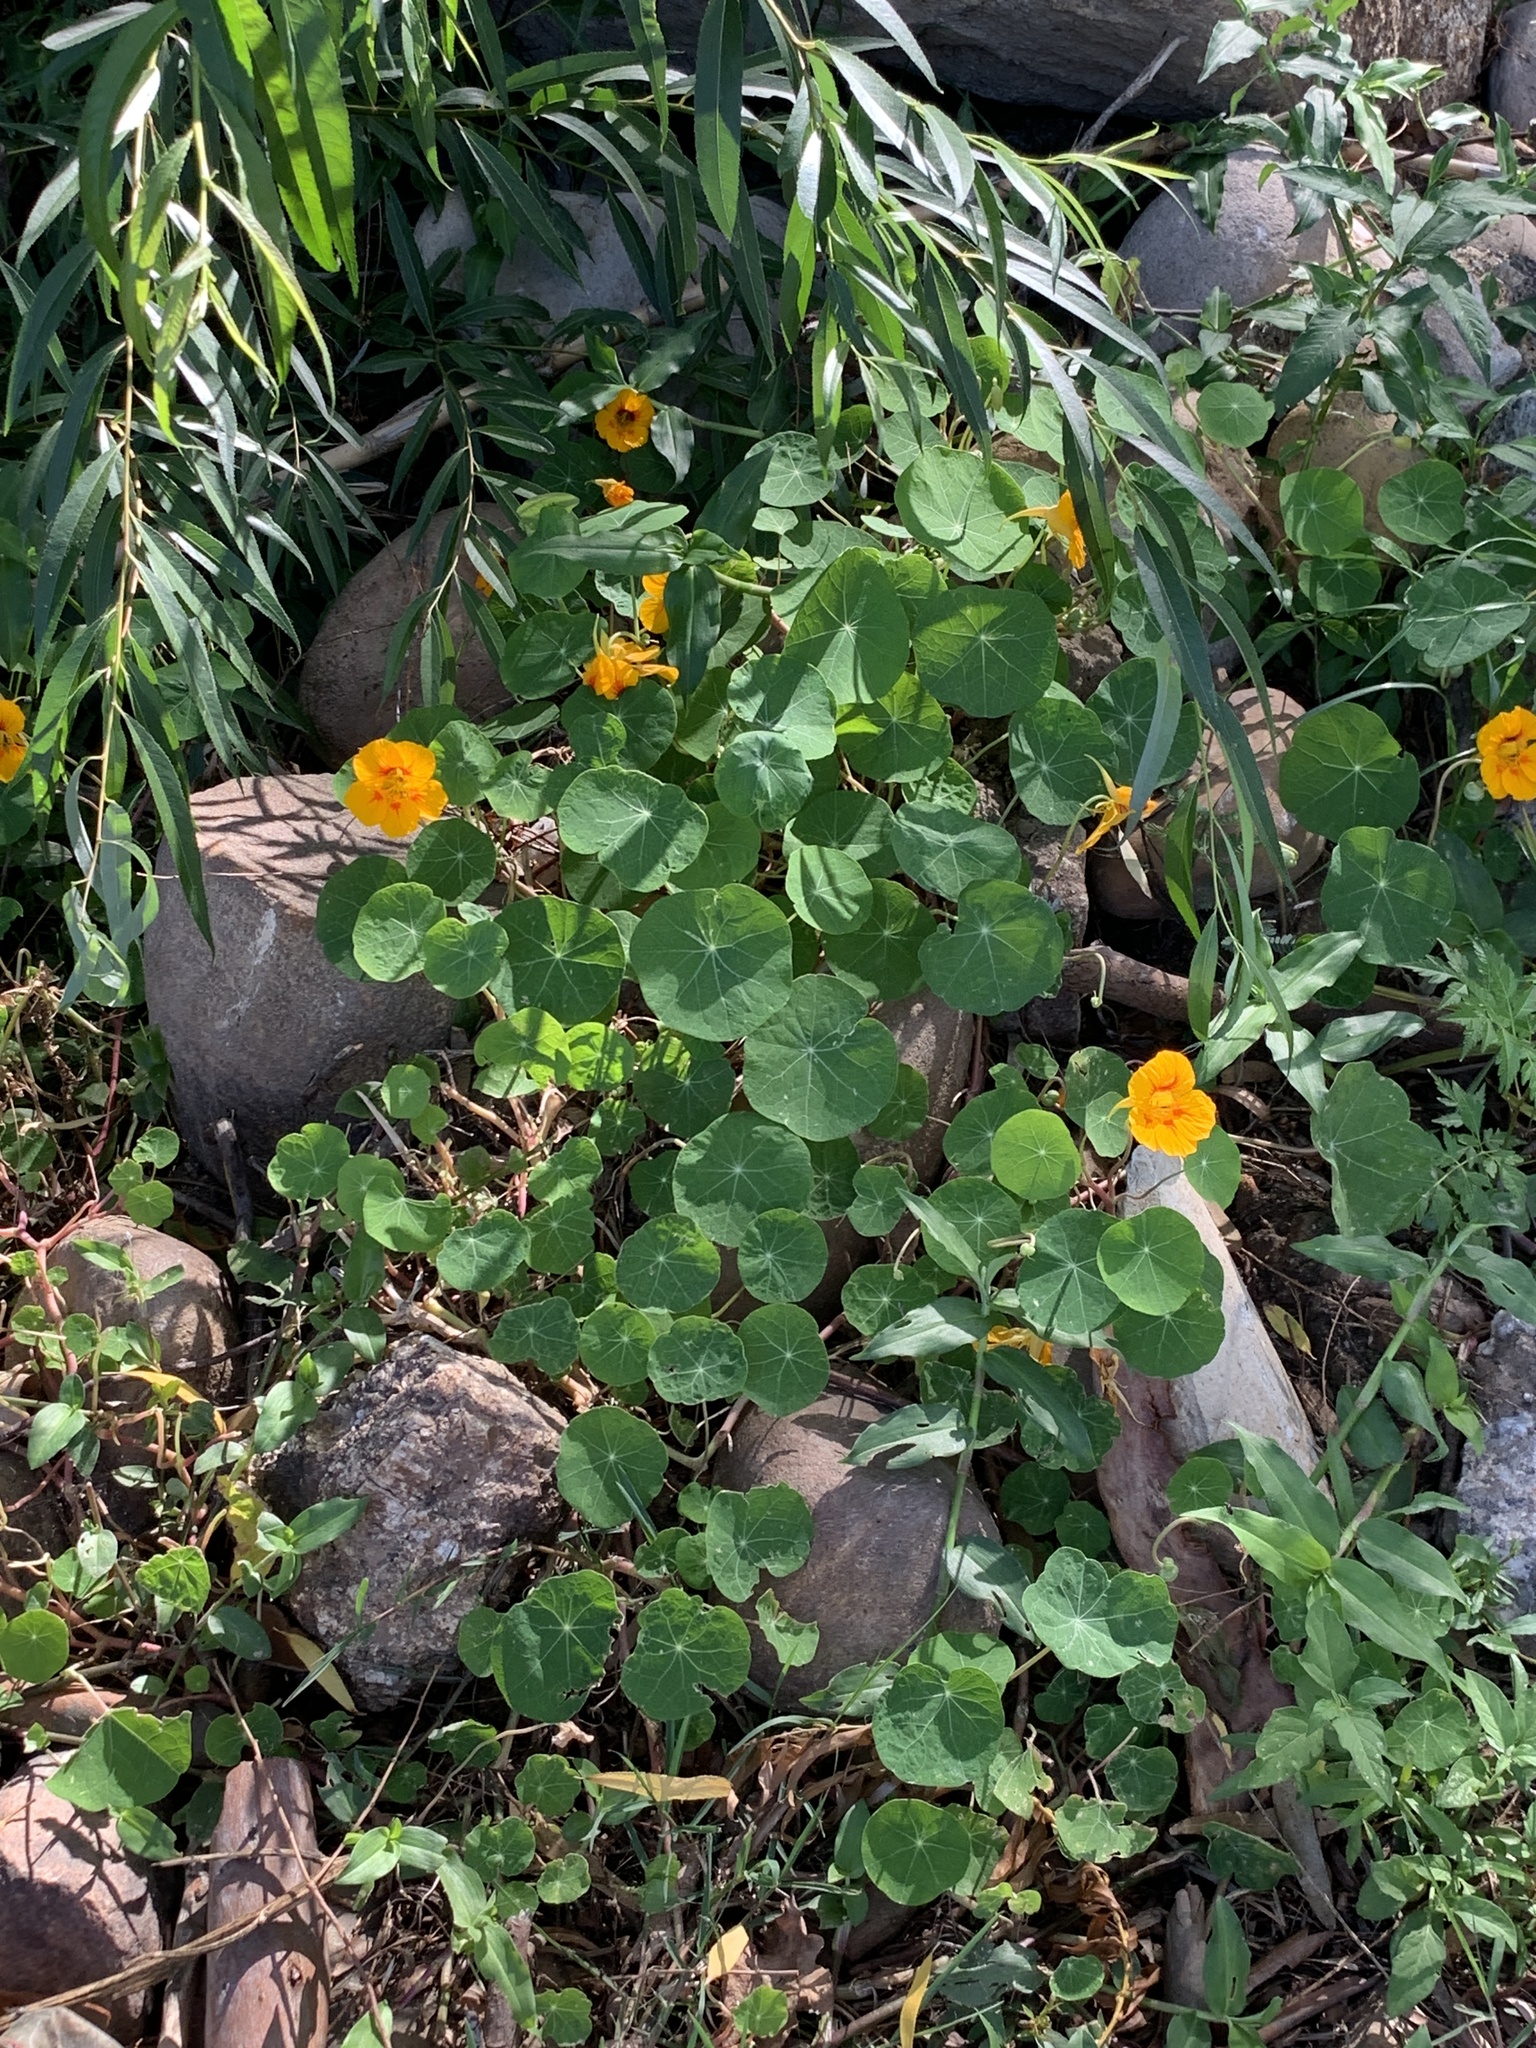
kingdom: Plantae
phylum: Tracheophyta
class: Magnoliopsida
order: Brassicales
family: Tropaeolaceae
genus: Tropaeolum
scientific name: Tropaeolum majus
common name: Nasturtium
